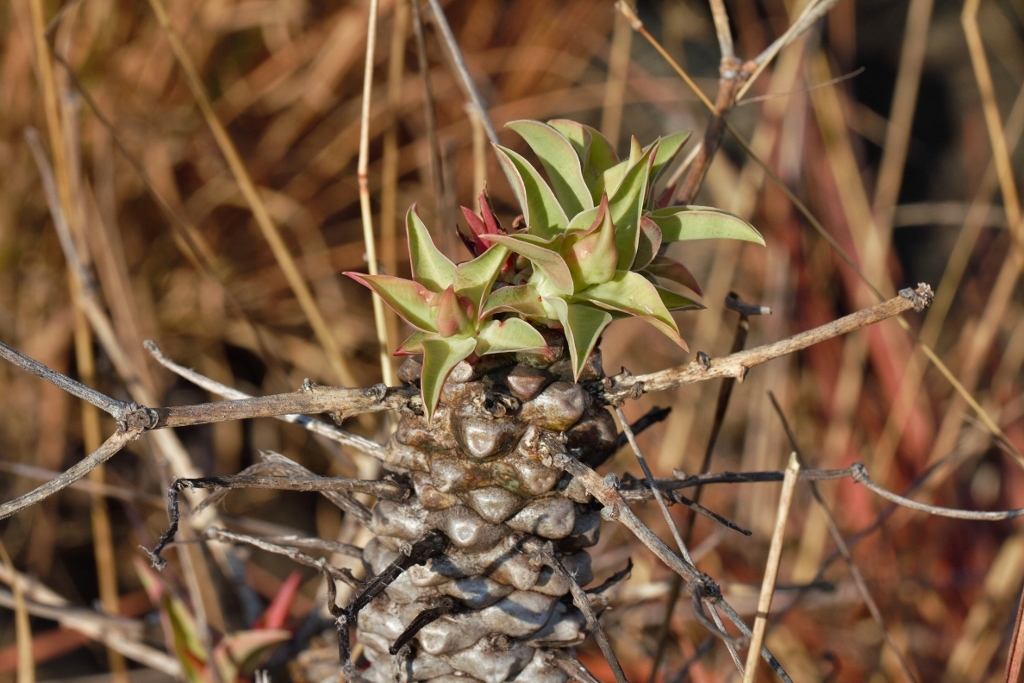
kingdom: Plantae
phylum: Tracheophyta
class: Magnoliopsida
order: Malpighiales
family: Euphorbiaceae
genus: Euphorbia
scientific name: Euphorbia wildii
